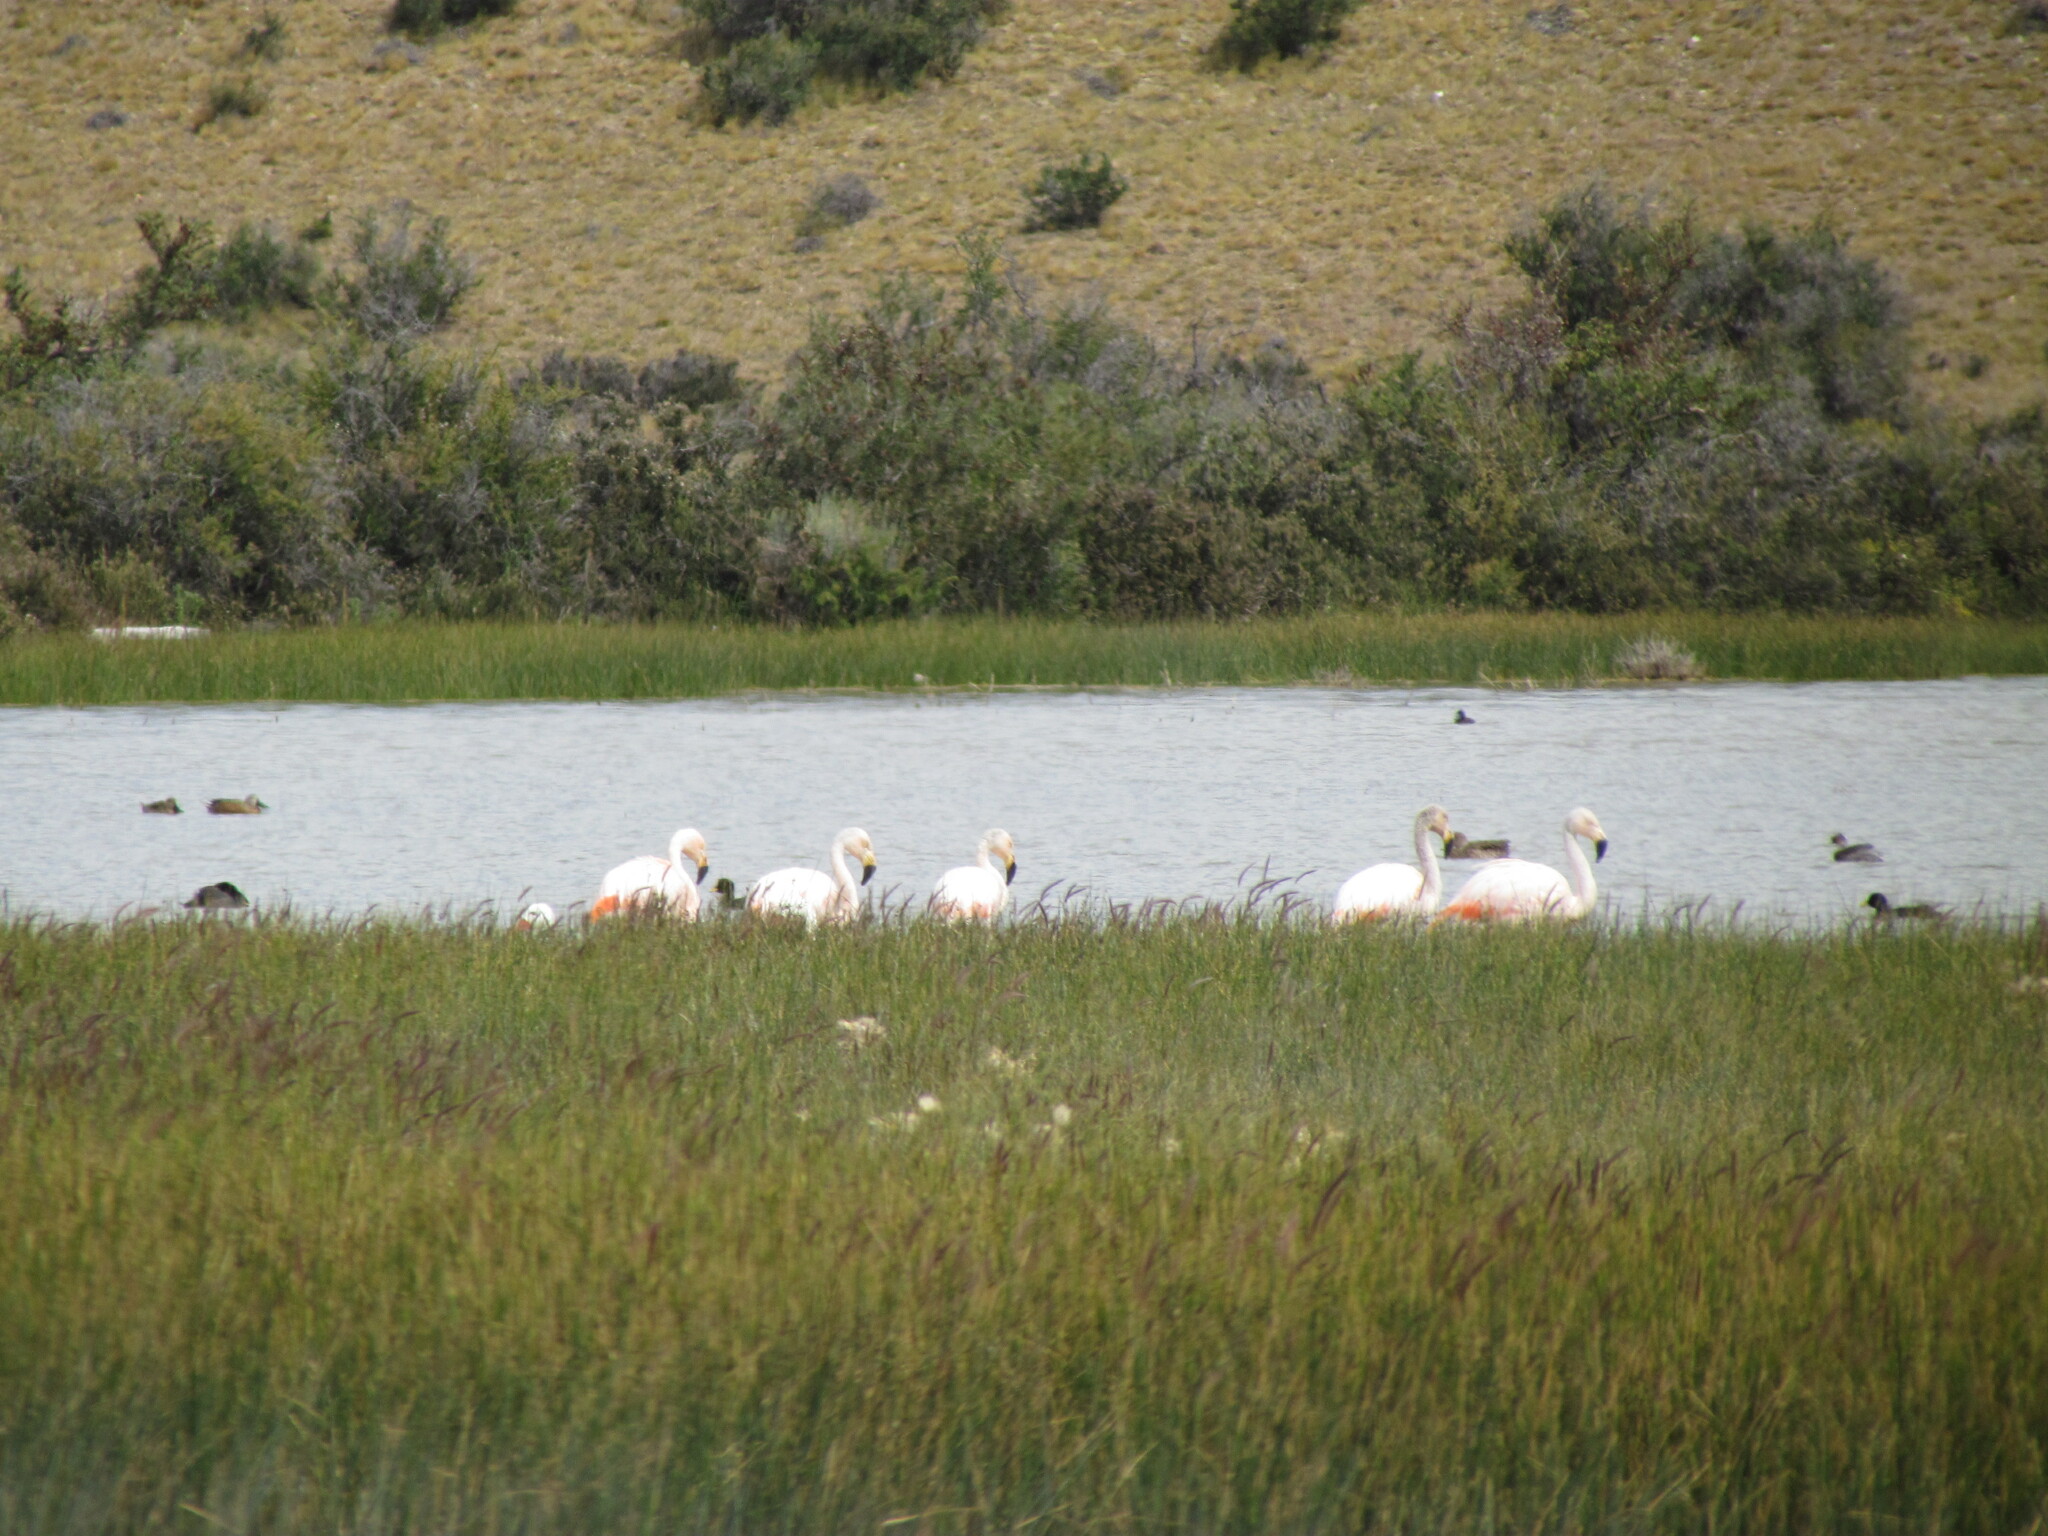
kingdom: Animalia
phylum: Chordata
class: Aves
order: Phoenicopteriformes
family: Phoenicopteridae
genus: Phoenicopterus
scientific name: Phoenicopterus chilensis
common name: Chilean flamingo
